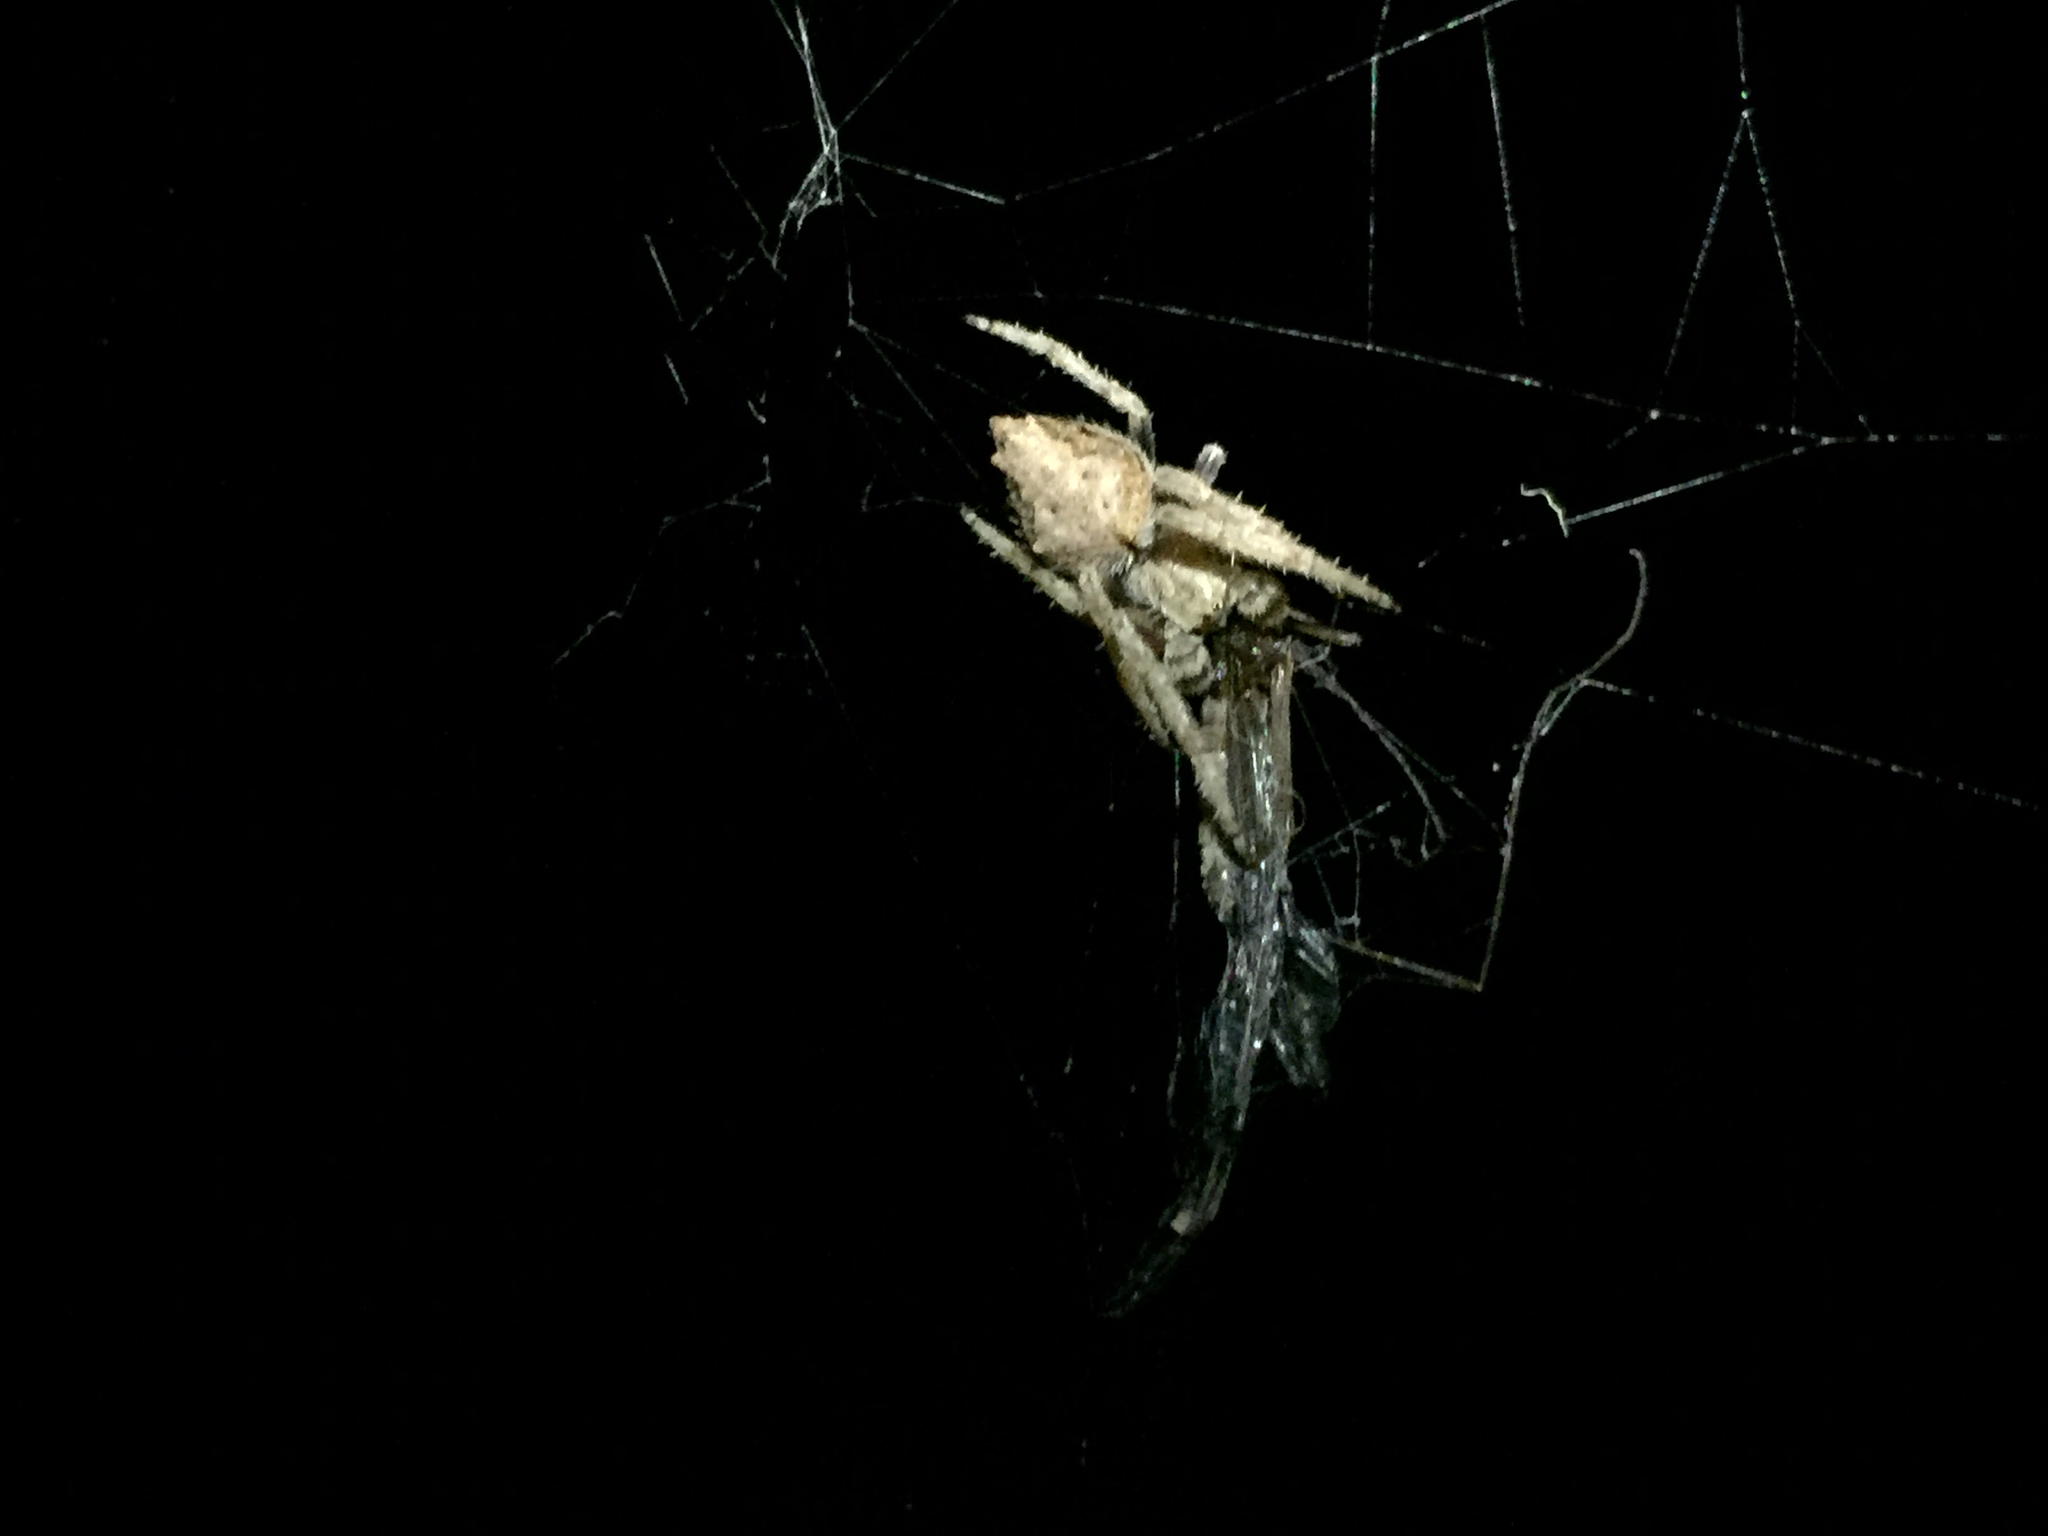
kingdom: Animalia
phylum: Arthropoda
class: Arachnida
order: Araneae
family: Araneidae
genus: Eriophora
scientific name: Eriophora pustulosa
